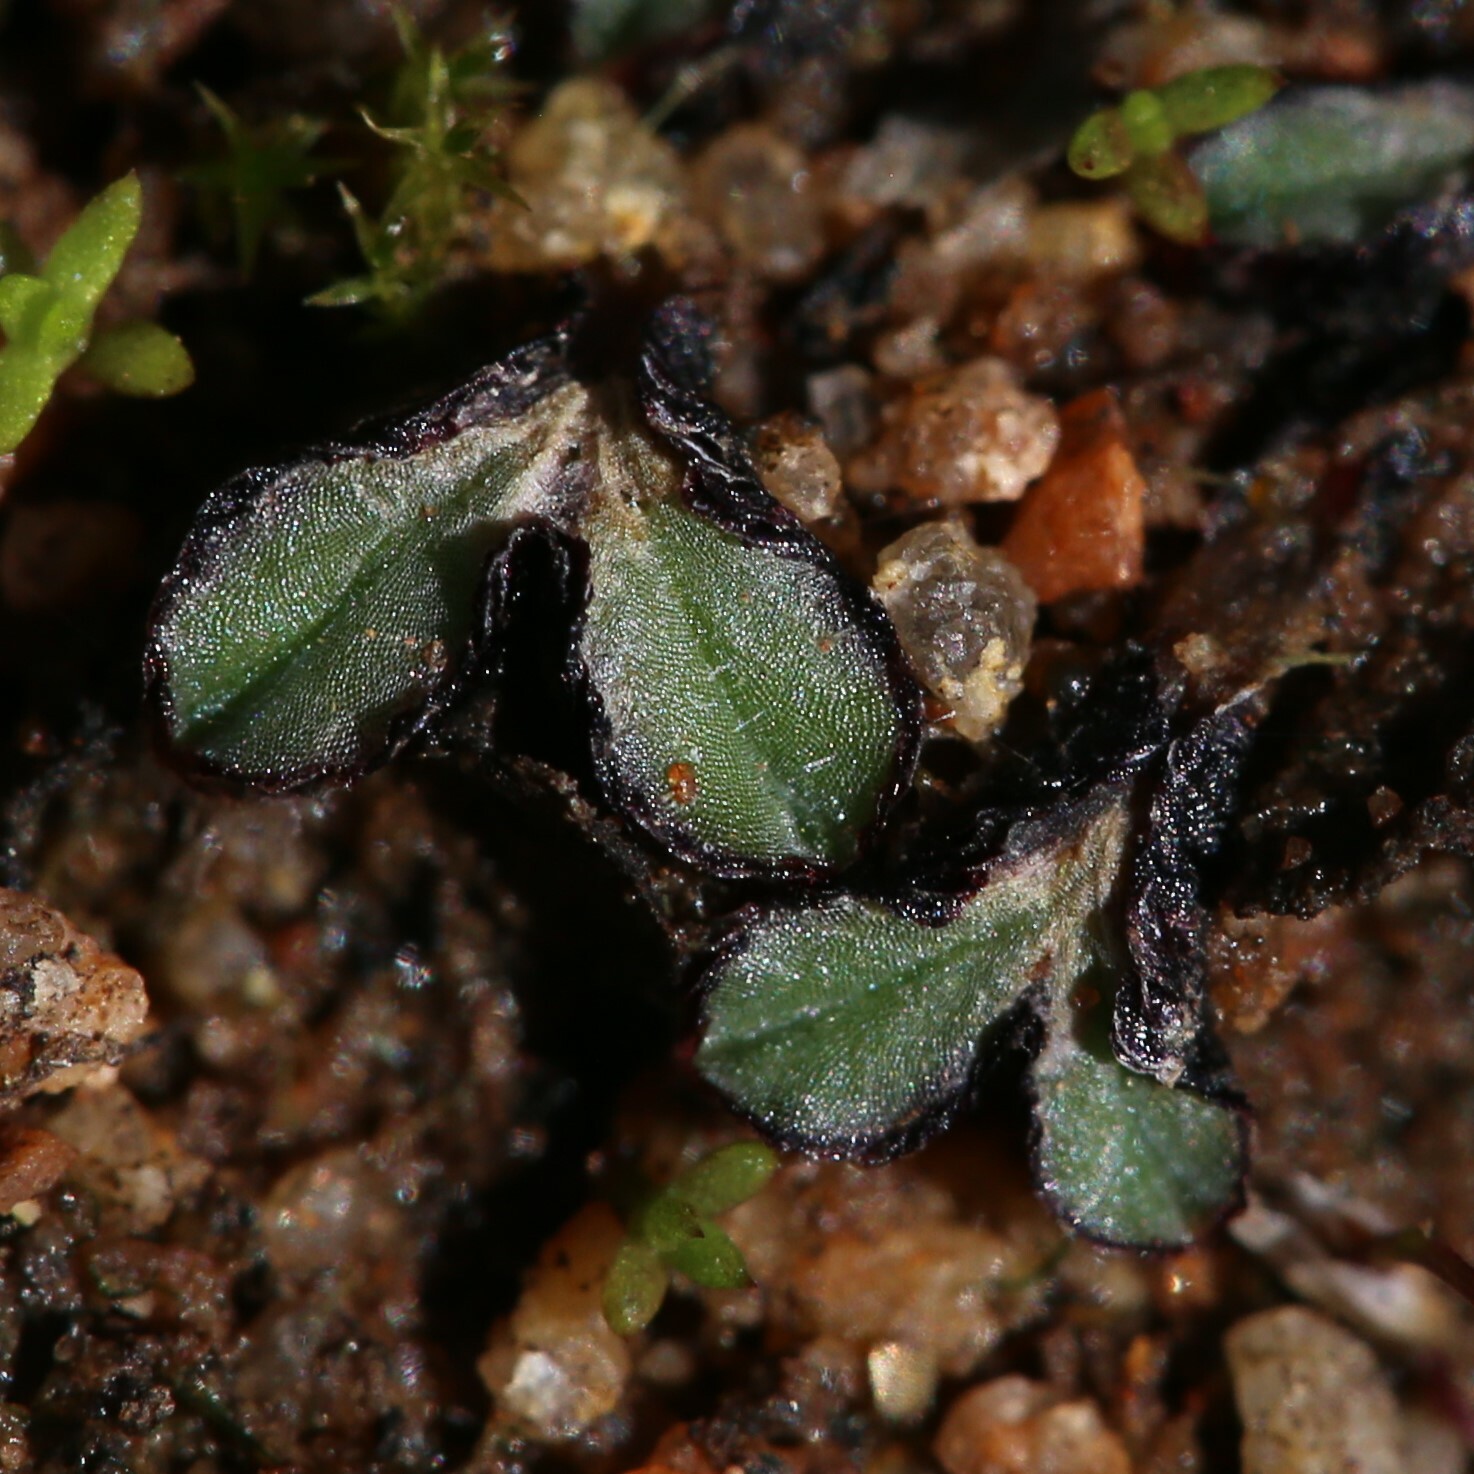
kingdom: Plantae
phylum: Marchantiophyta
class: Marchantiopsida
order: Marchantiales
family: Ricciaceae
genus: Riccia
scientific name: Riccia inflexa
